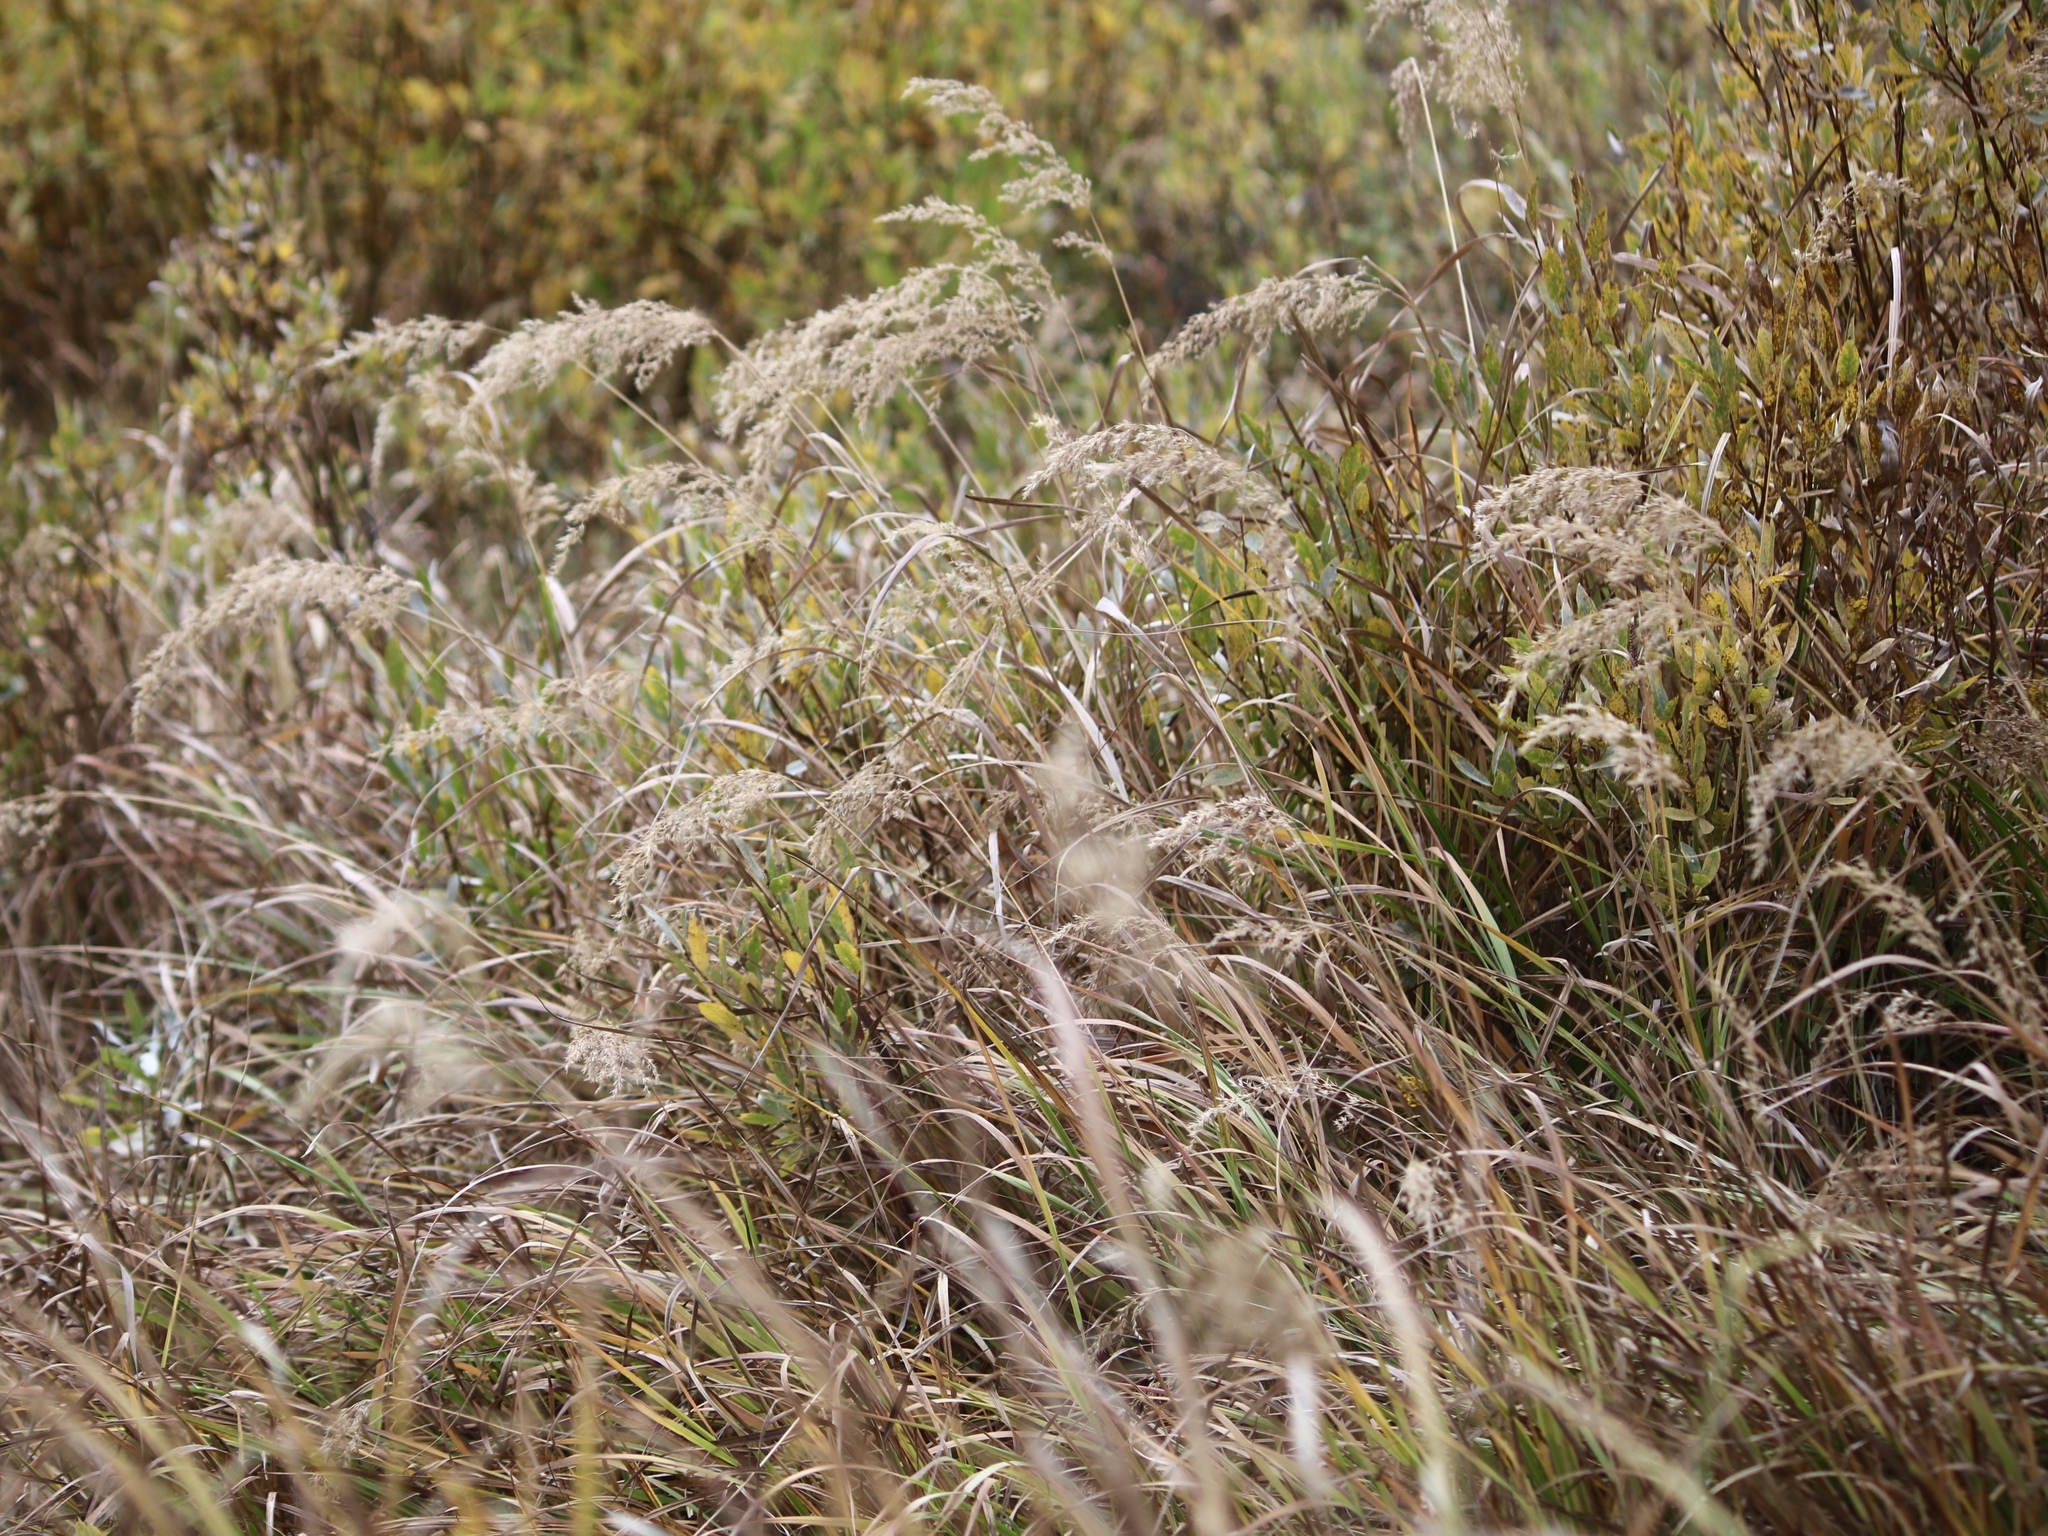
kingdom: Plantae
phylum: Tracheophyta
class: Liliopsida
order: Poales
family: Poaceae
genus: Calamagrostis
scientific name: Calamagrostis canadensis
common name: Canada bluejoint
